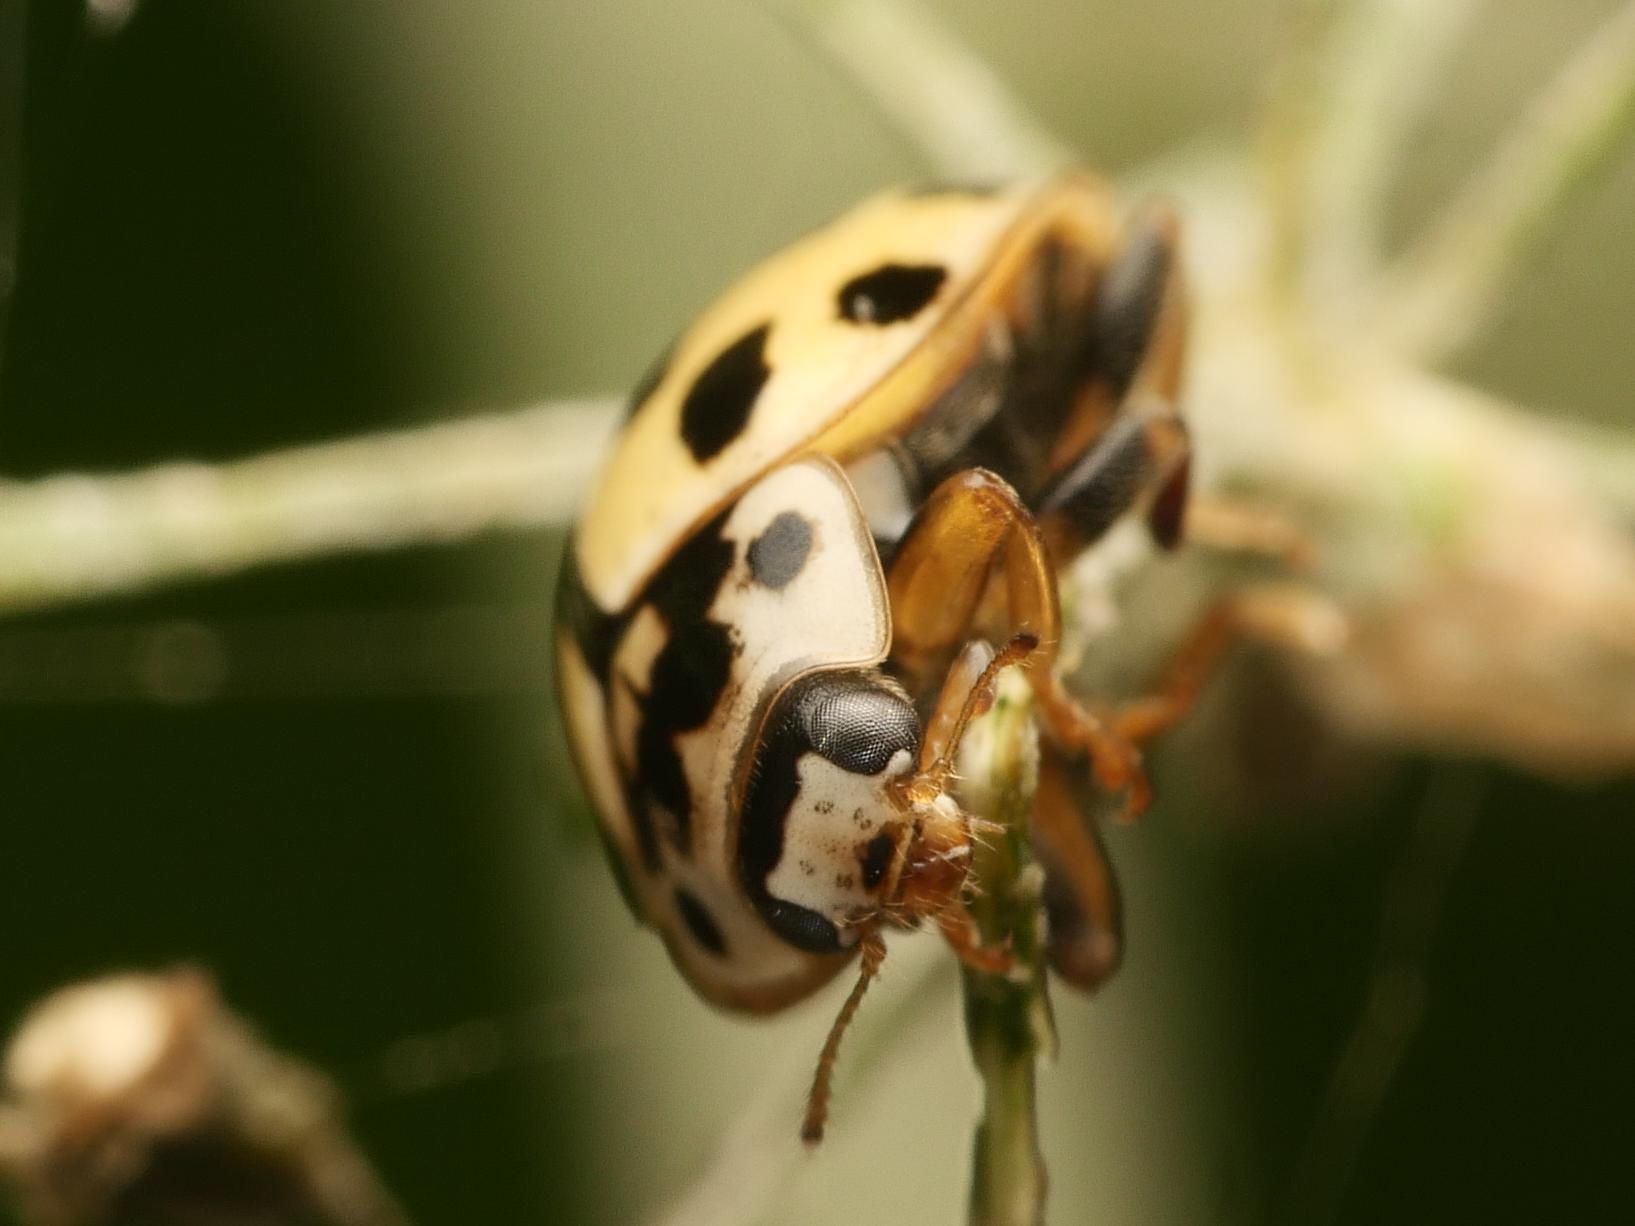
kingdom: Animalia
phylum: Arthropoda
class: Insecta
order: Coleoptera
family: Coccinellidae
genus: Propylaea
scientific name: Propylaea quatuordecimpunctata
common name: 14-spotted ladybird beetle
